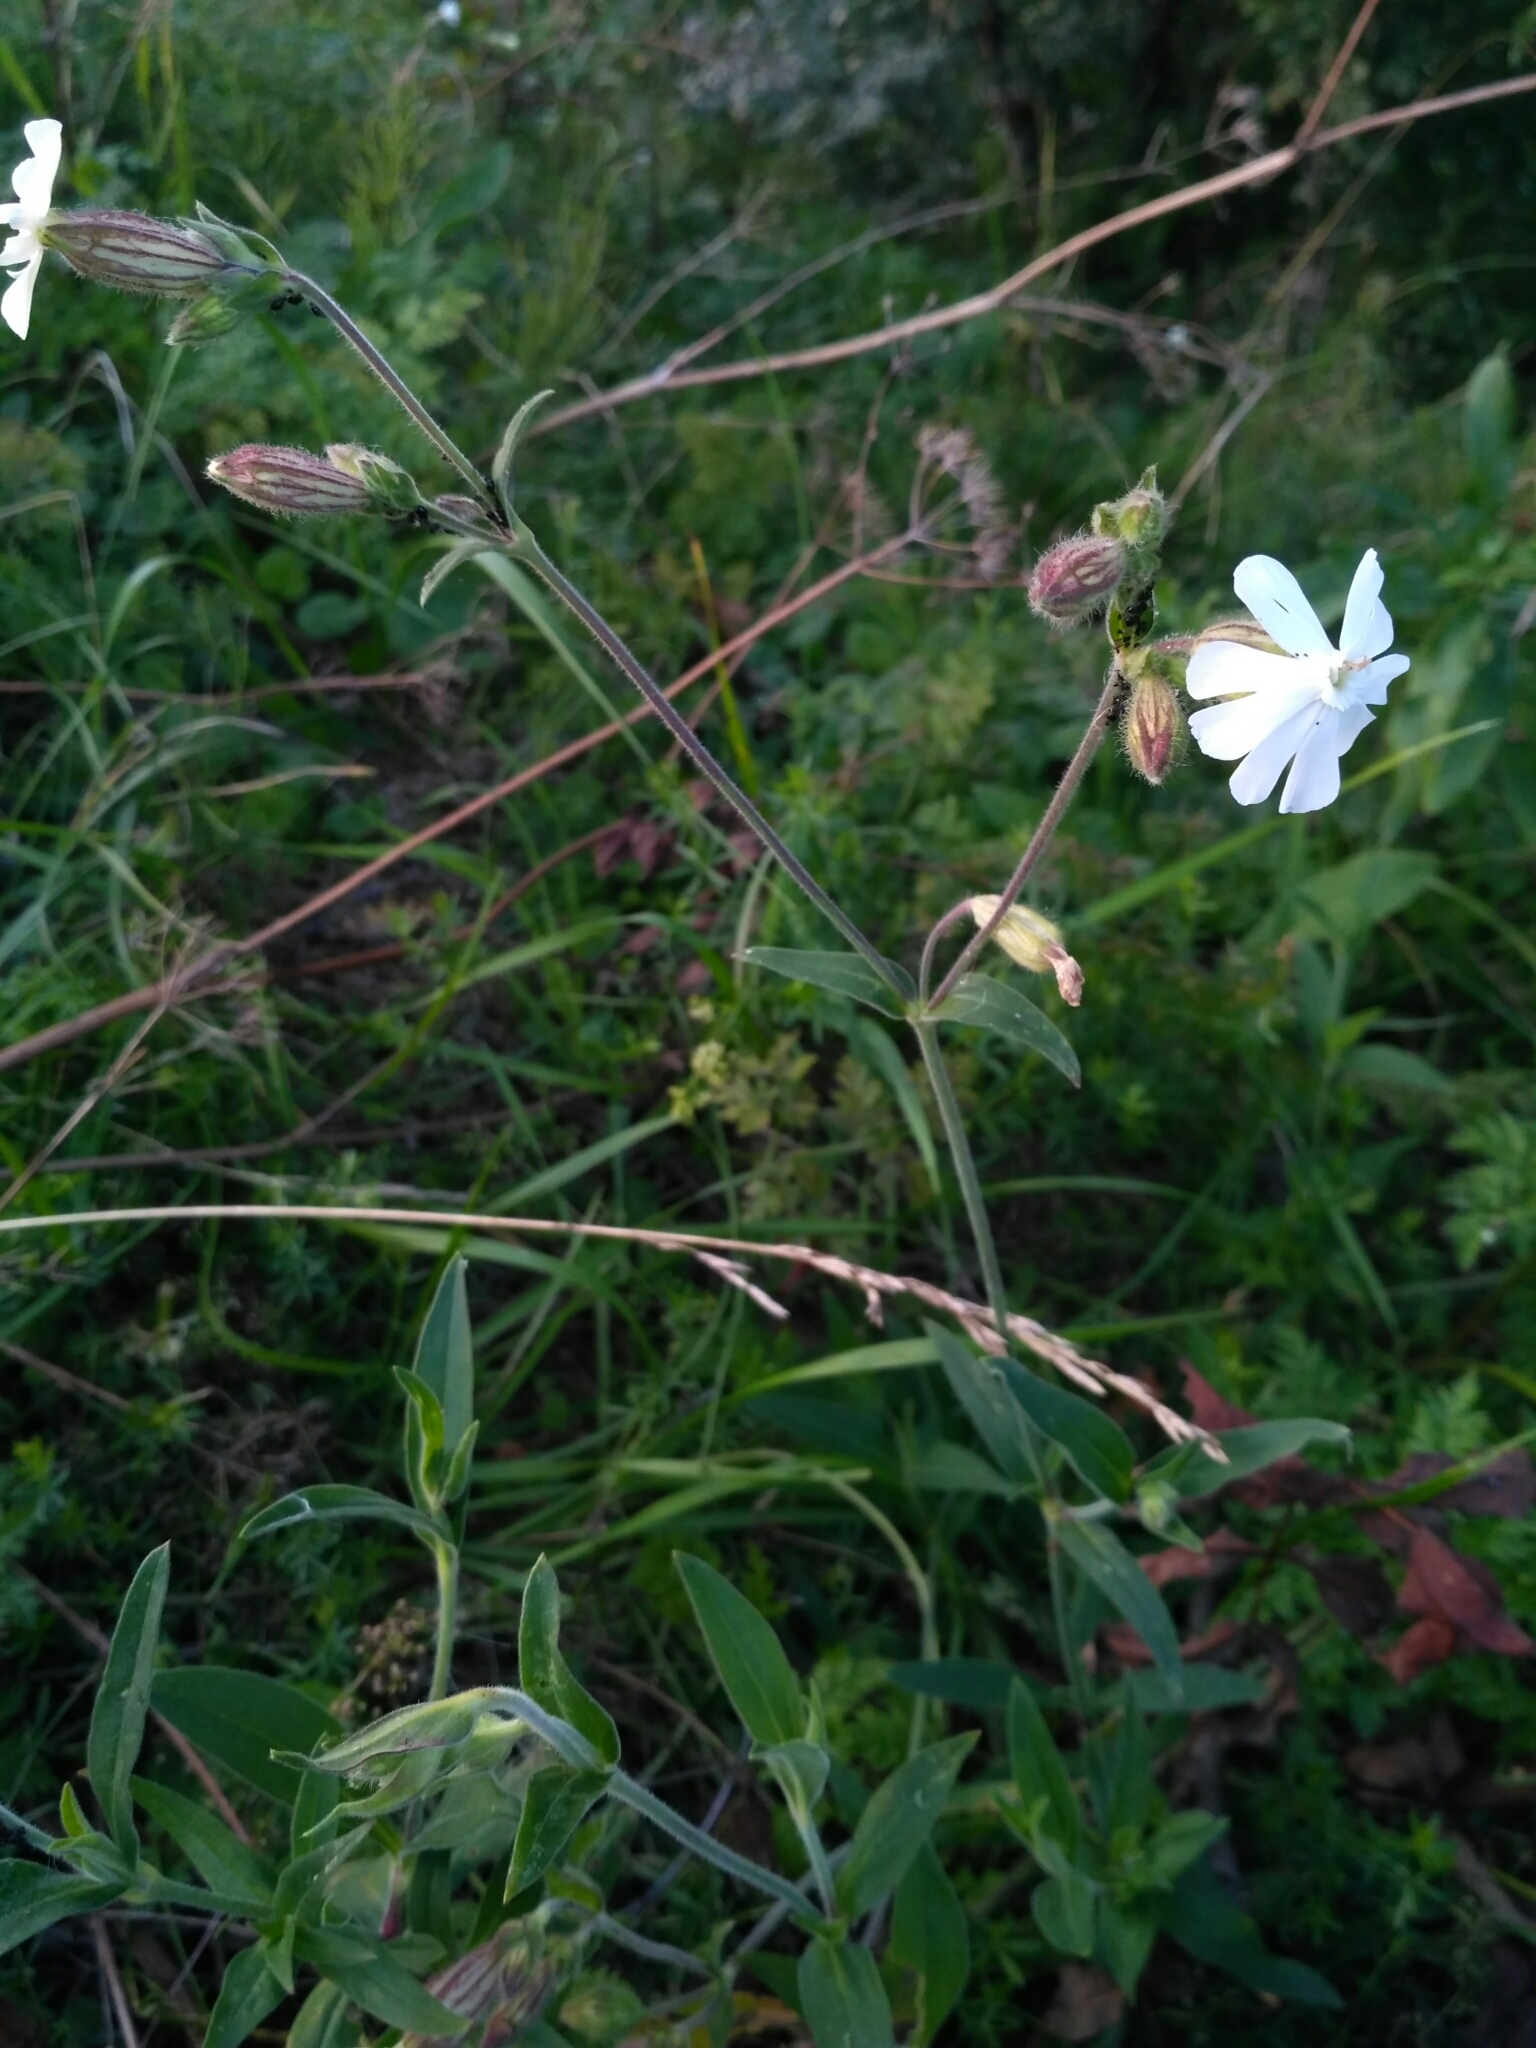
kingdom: Plantae
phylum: Tracheophyta
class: Magnoliopsida
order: Caryophyllales
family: Caryophyllaceae
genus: Silene
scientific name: Silene latifolia
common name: White campion
